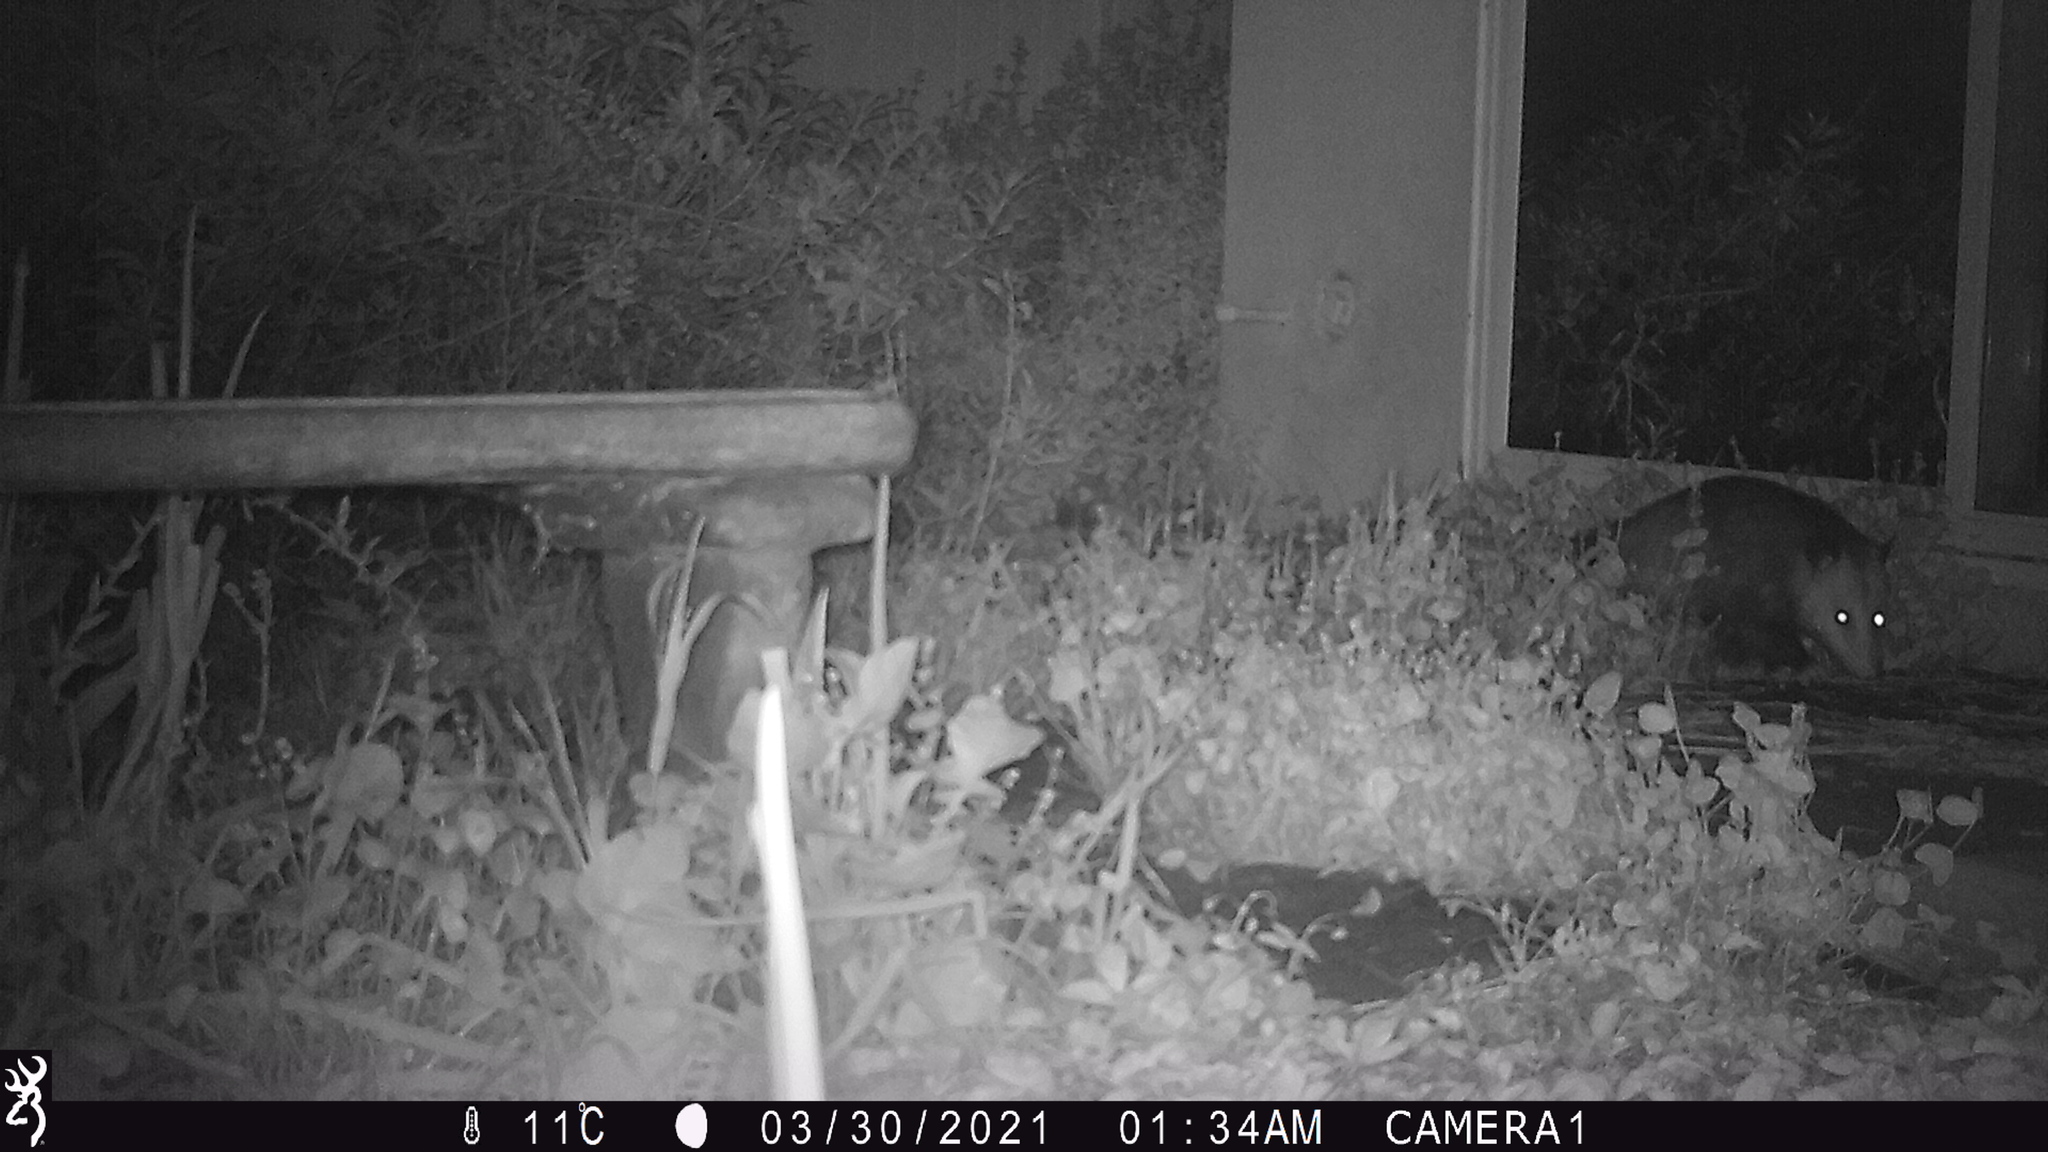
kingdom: Animalia
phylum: Chordata
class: Mammalia
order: Didelphimorphia
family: Didelphidae
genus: Didelphis
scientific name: Didelphis virginiana
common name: Virginia opossum
